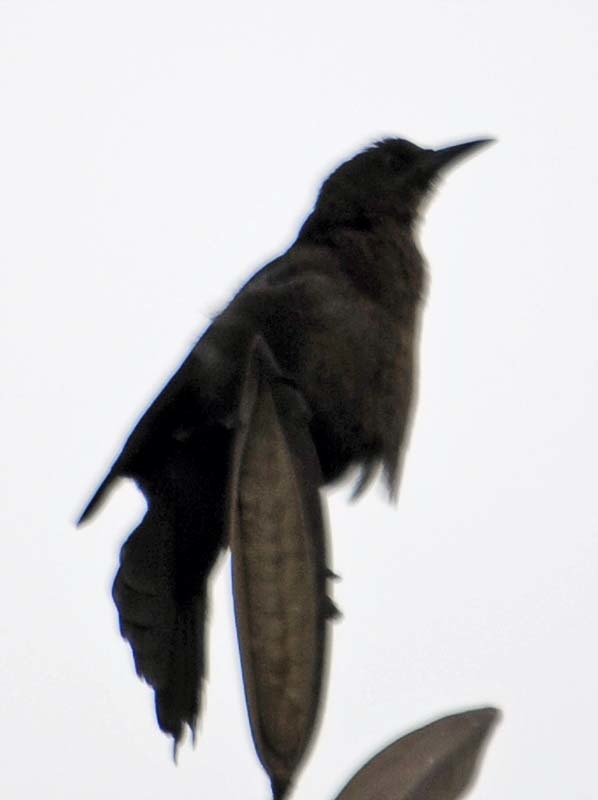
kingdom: Animalia
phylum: Chordata
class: Aves
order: Passeriformes
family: Icteridae
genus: Quiscalus
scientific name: Quiscalus mexicanus
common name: Great-tailed grackle
